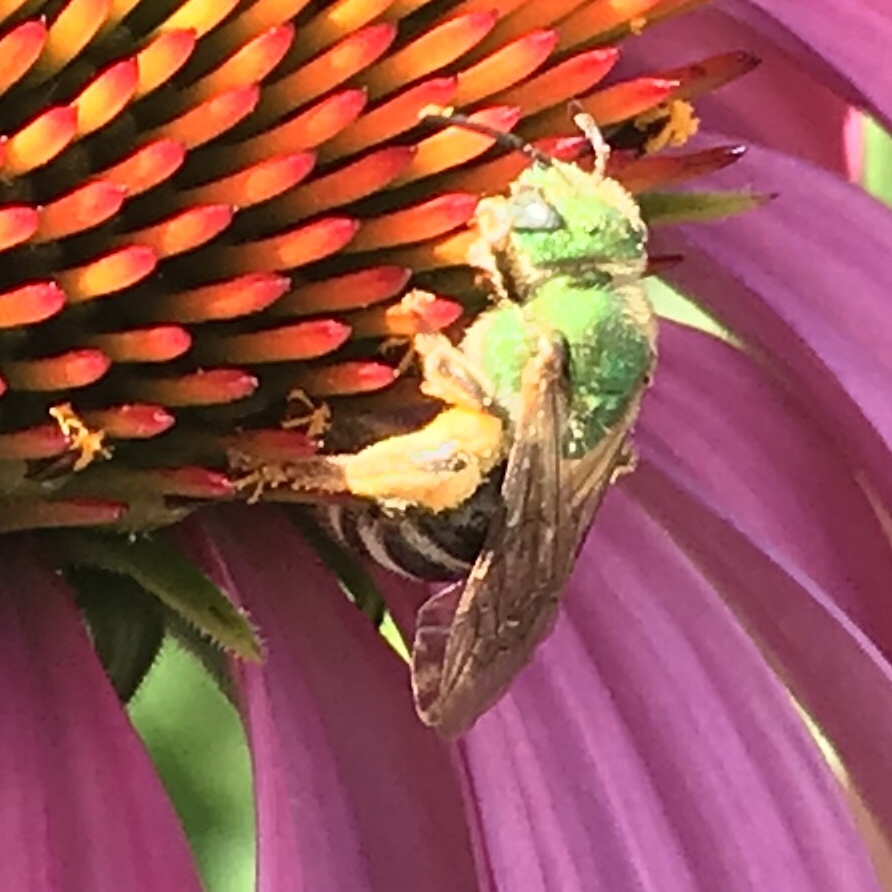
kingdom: Animalia
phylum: Arthropoda
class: Insecta
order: Hymenoptera
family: Halictidae
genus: Agapostemon
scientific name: Agapostemon virescens
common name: Bicolored striped sweat bee
